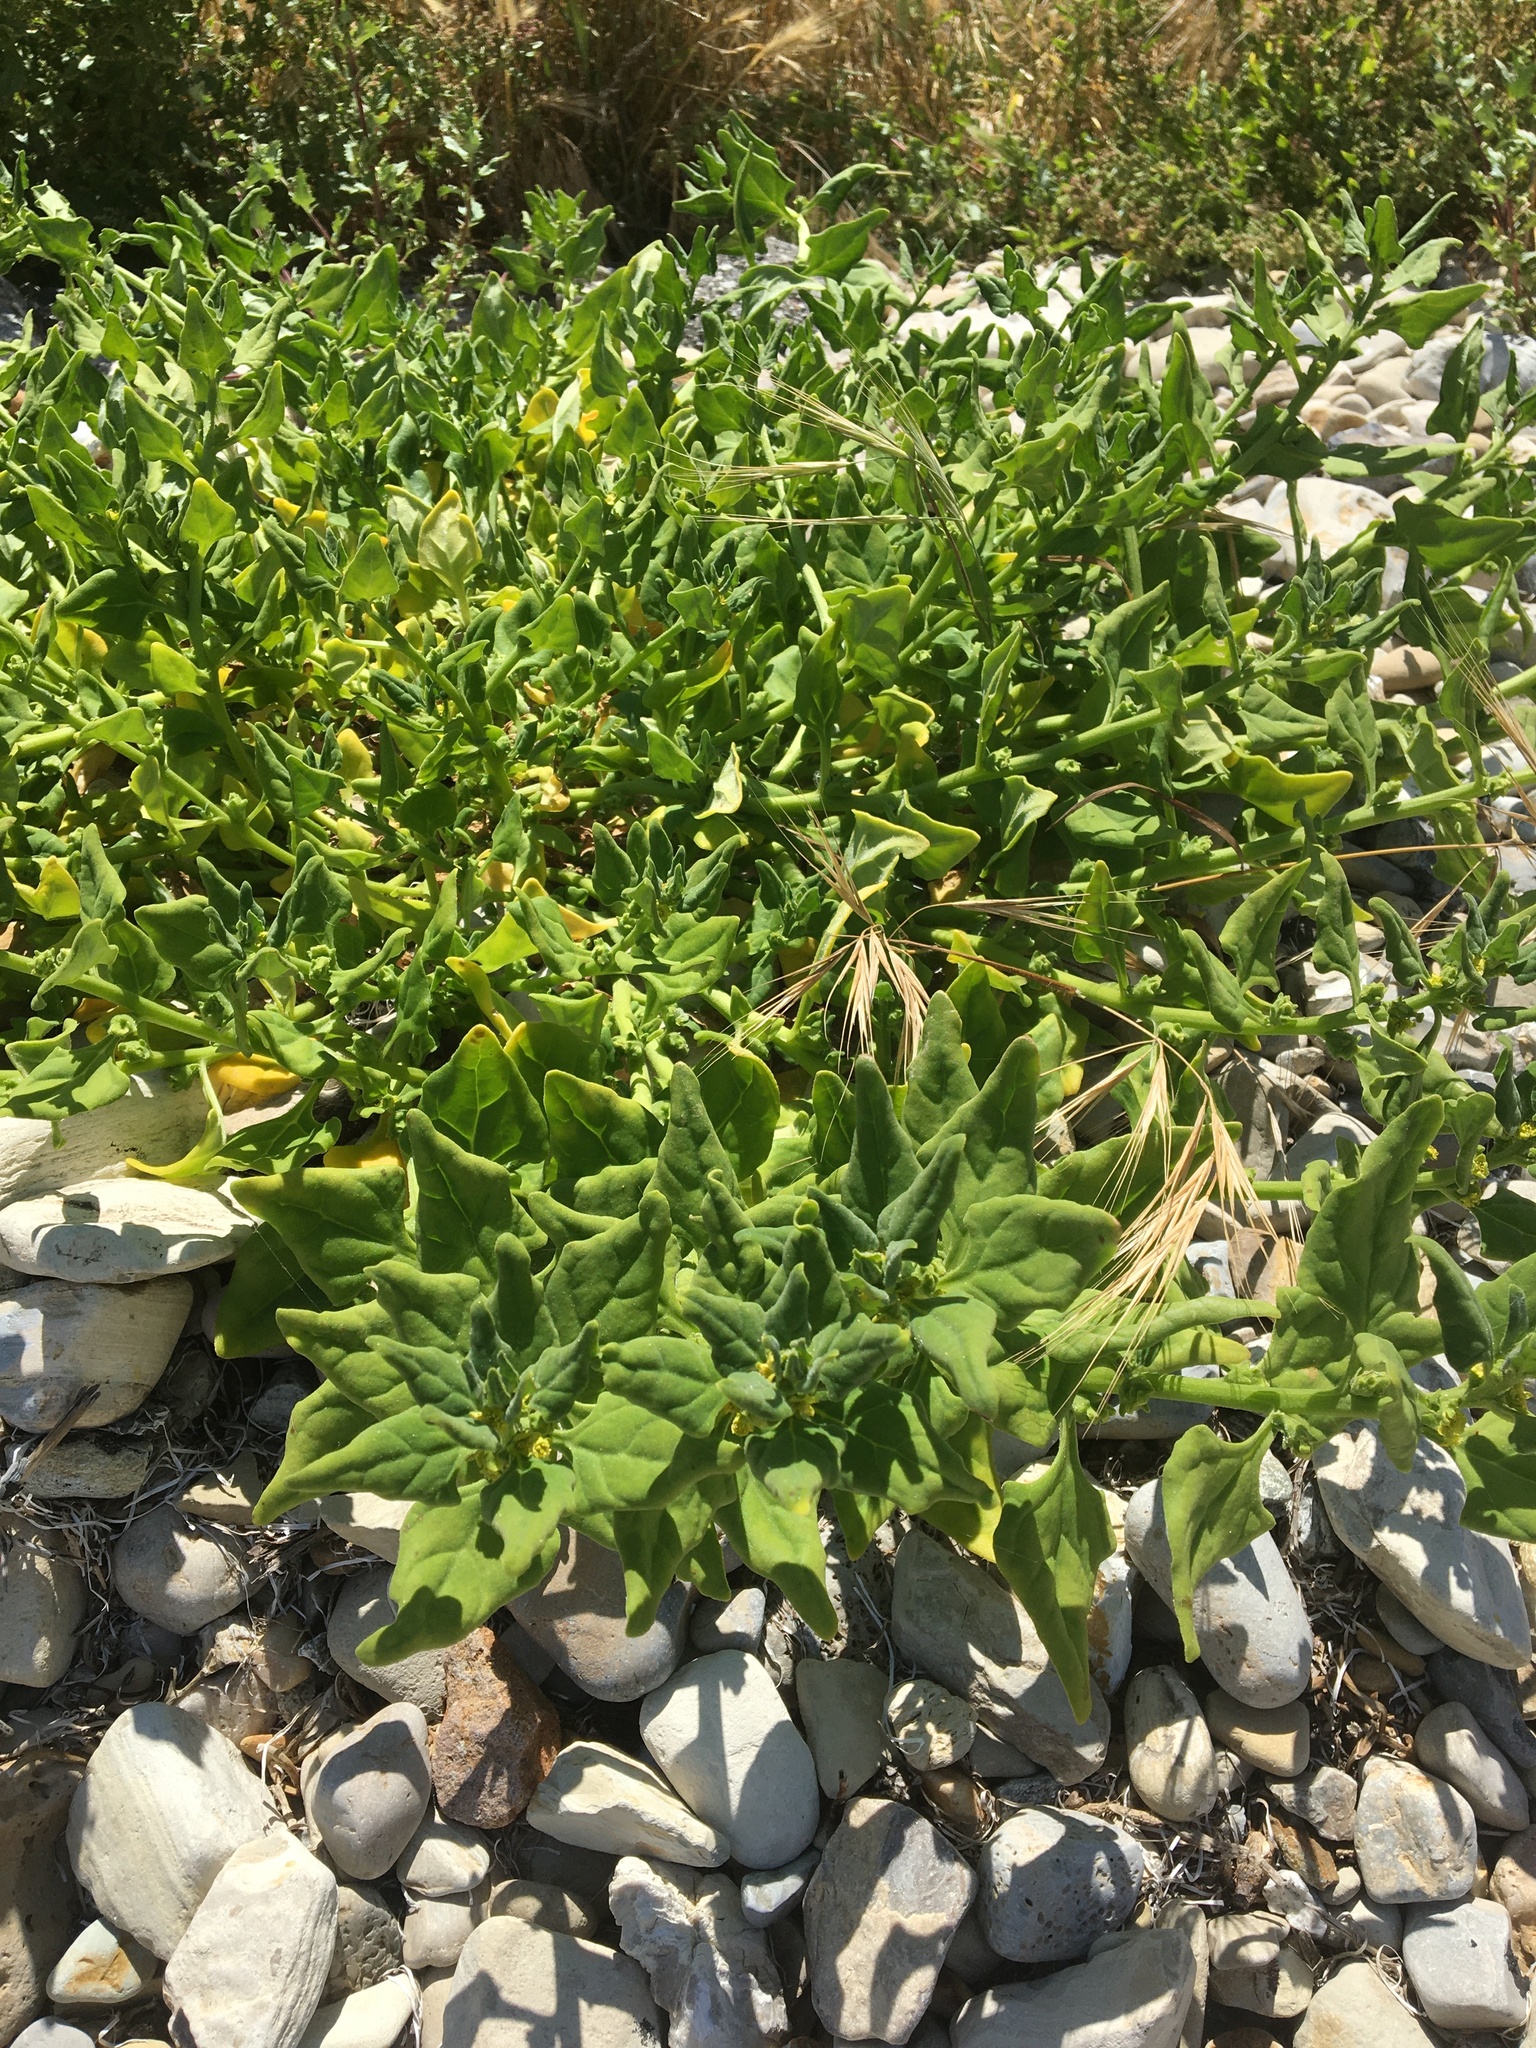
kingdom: Plantae
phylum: Tracheophyta
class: Magnoliopsida
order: Caryophyllales
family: Aizoaceae
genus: Tetragonia
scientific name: Tetragonia tetragonoides
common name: New zealand-spinach
